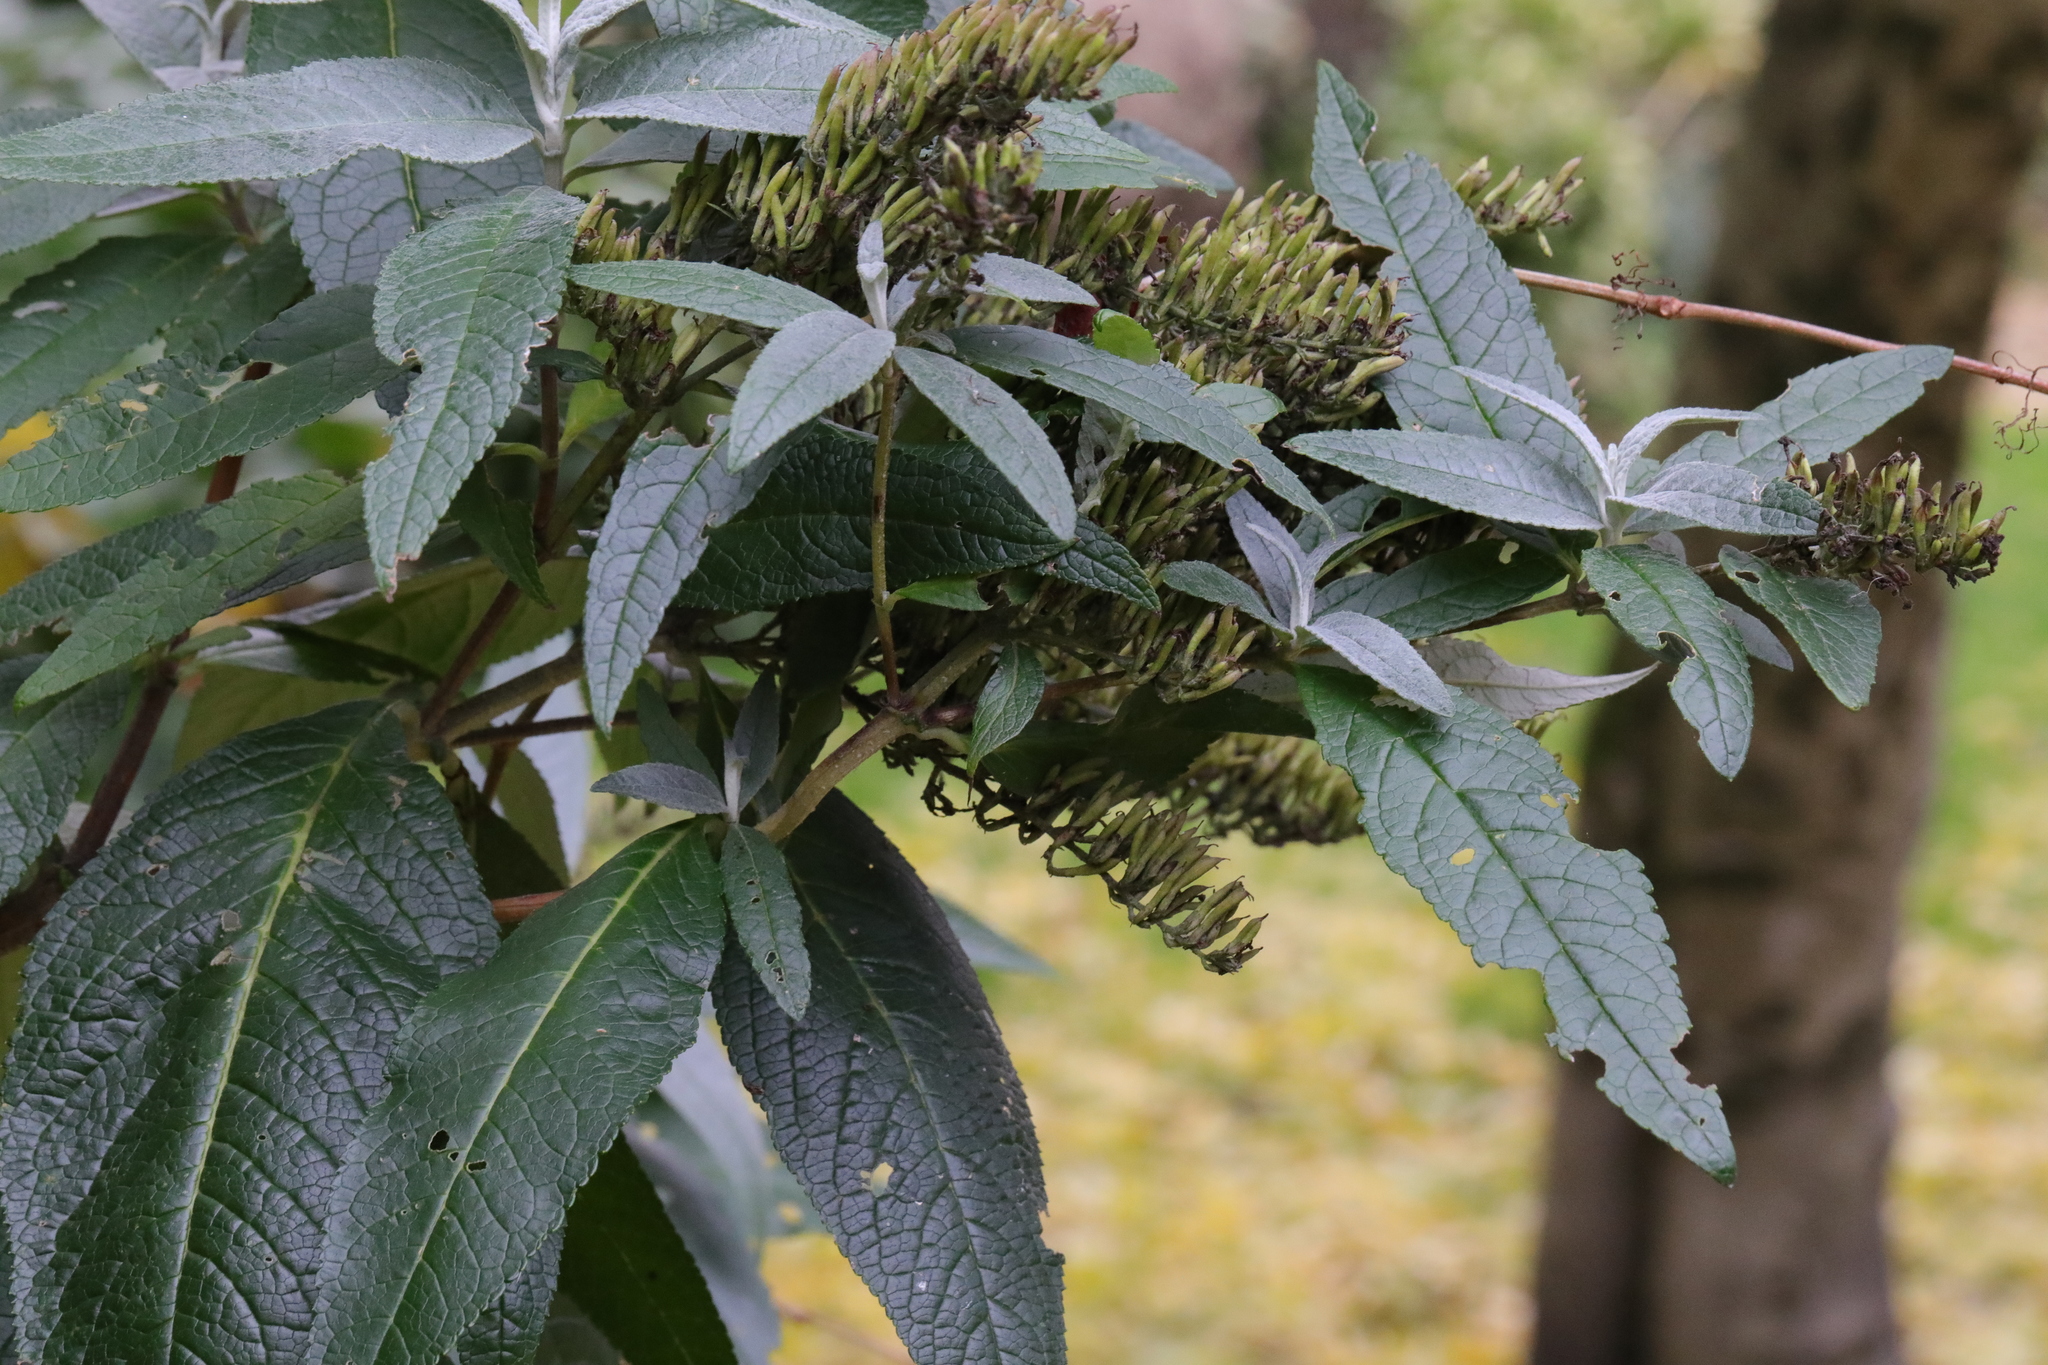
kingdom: Plantae
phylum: Tracheophyta
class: Magnoliopsida
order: Lamiales
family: Scrophulariaceae
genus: Buddleja
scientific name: Buddleja davidii
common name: Butterfly-bush
